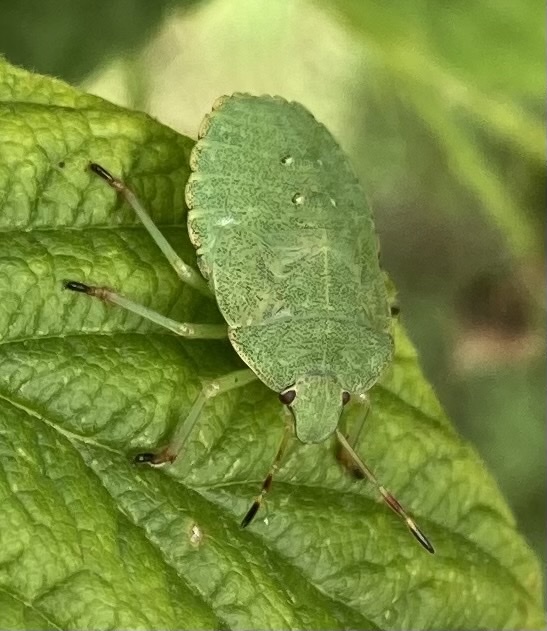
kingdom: Animalia
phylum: Arthropoda
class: Insecta
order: Hemiptera
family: Pentatomidae
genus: Palomena
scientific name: Palomena prasina
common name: Green shieldbug
